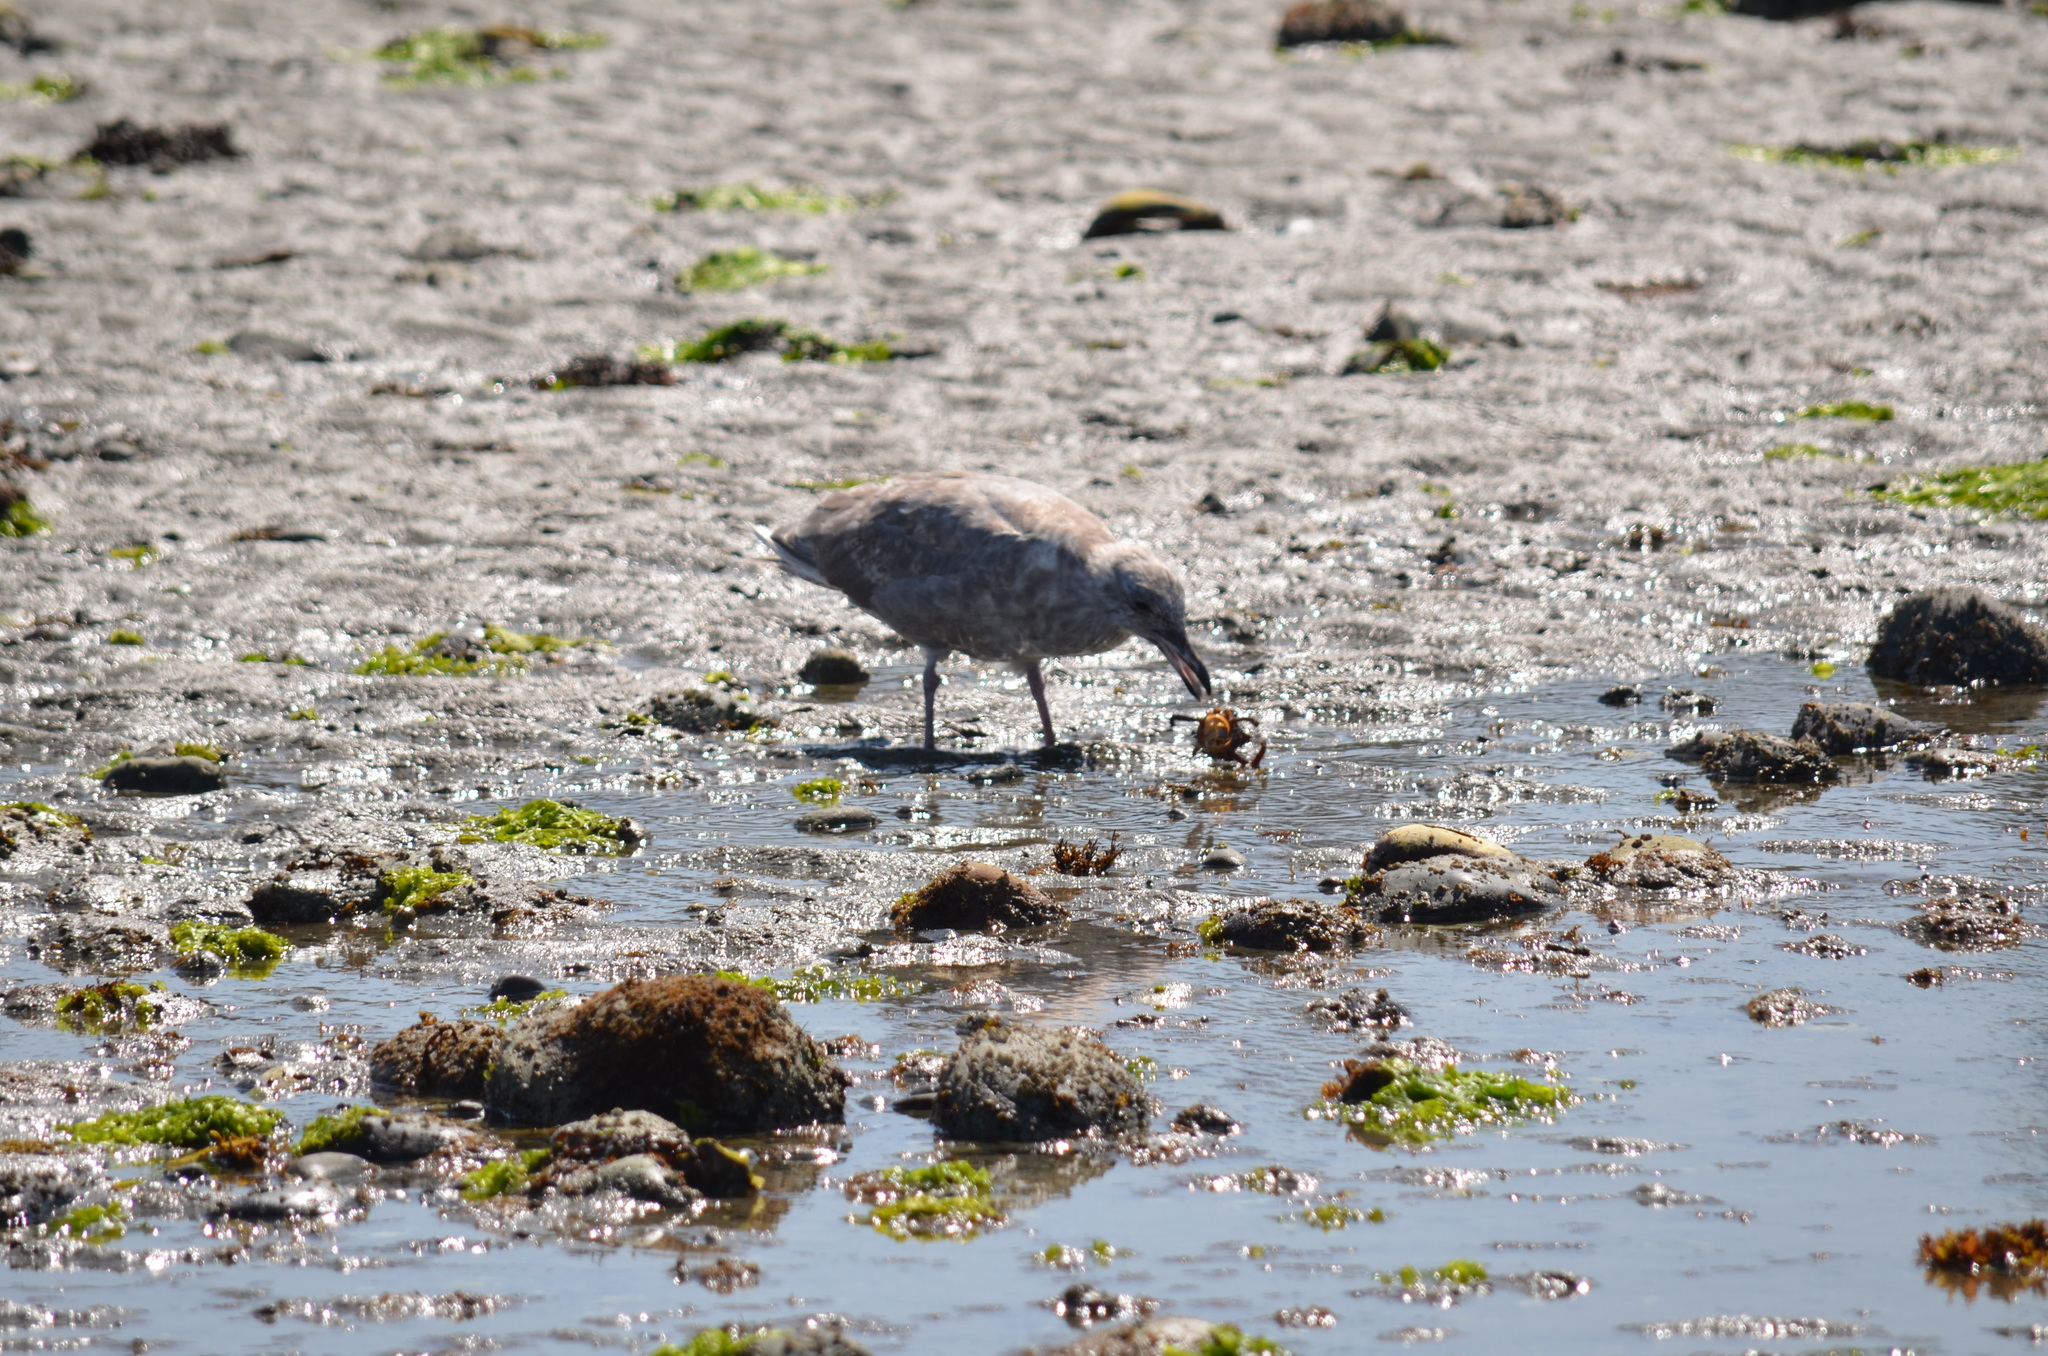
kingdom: Animalia
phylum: Arthropoda
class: Malacostraca
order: Decapoda
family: Epialtidae
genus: Pugettia
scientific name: Pugettia producta
